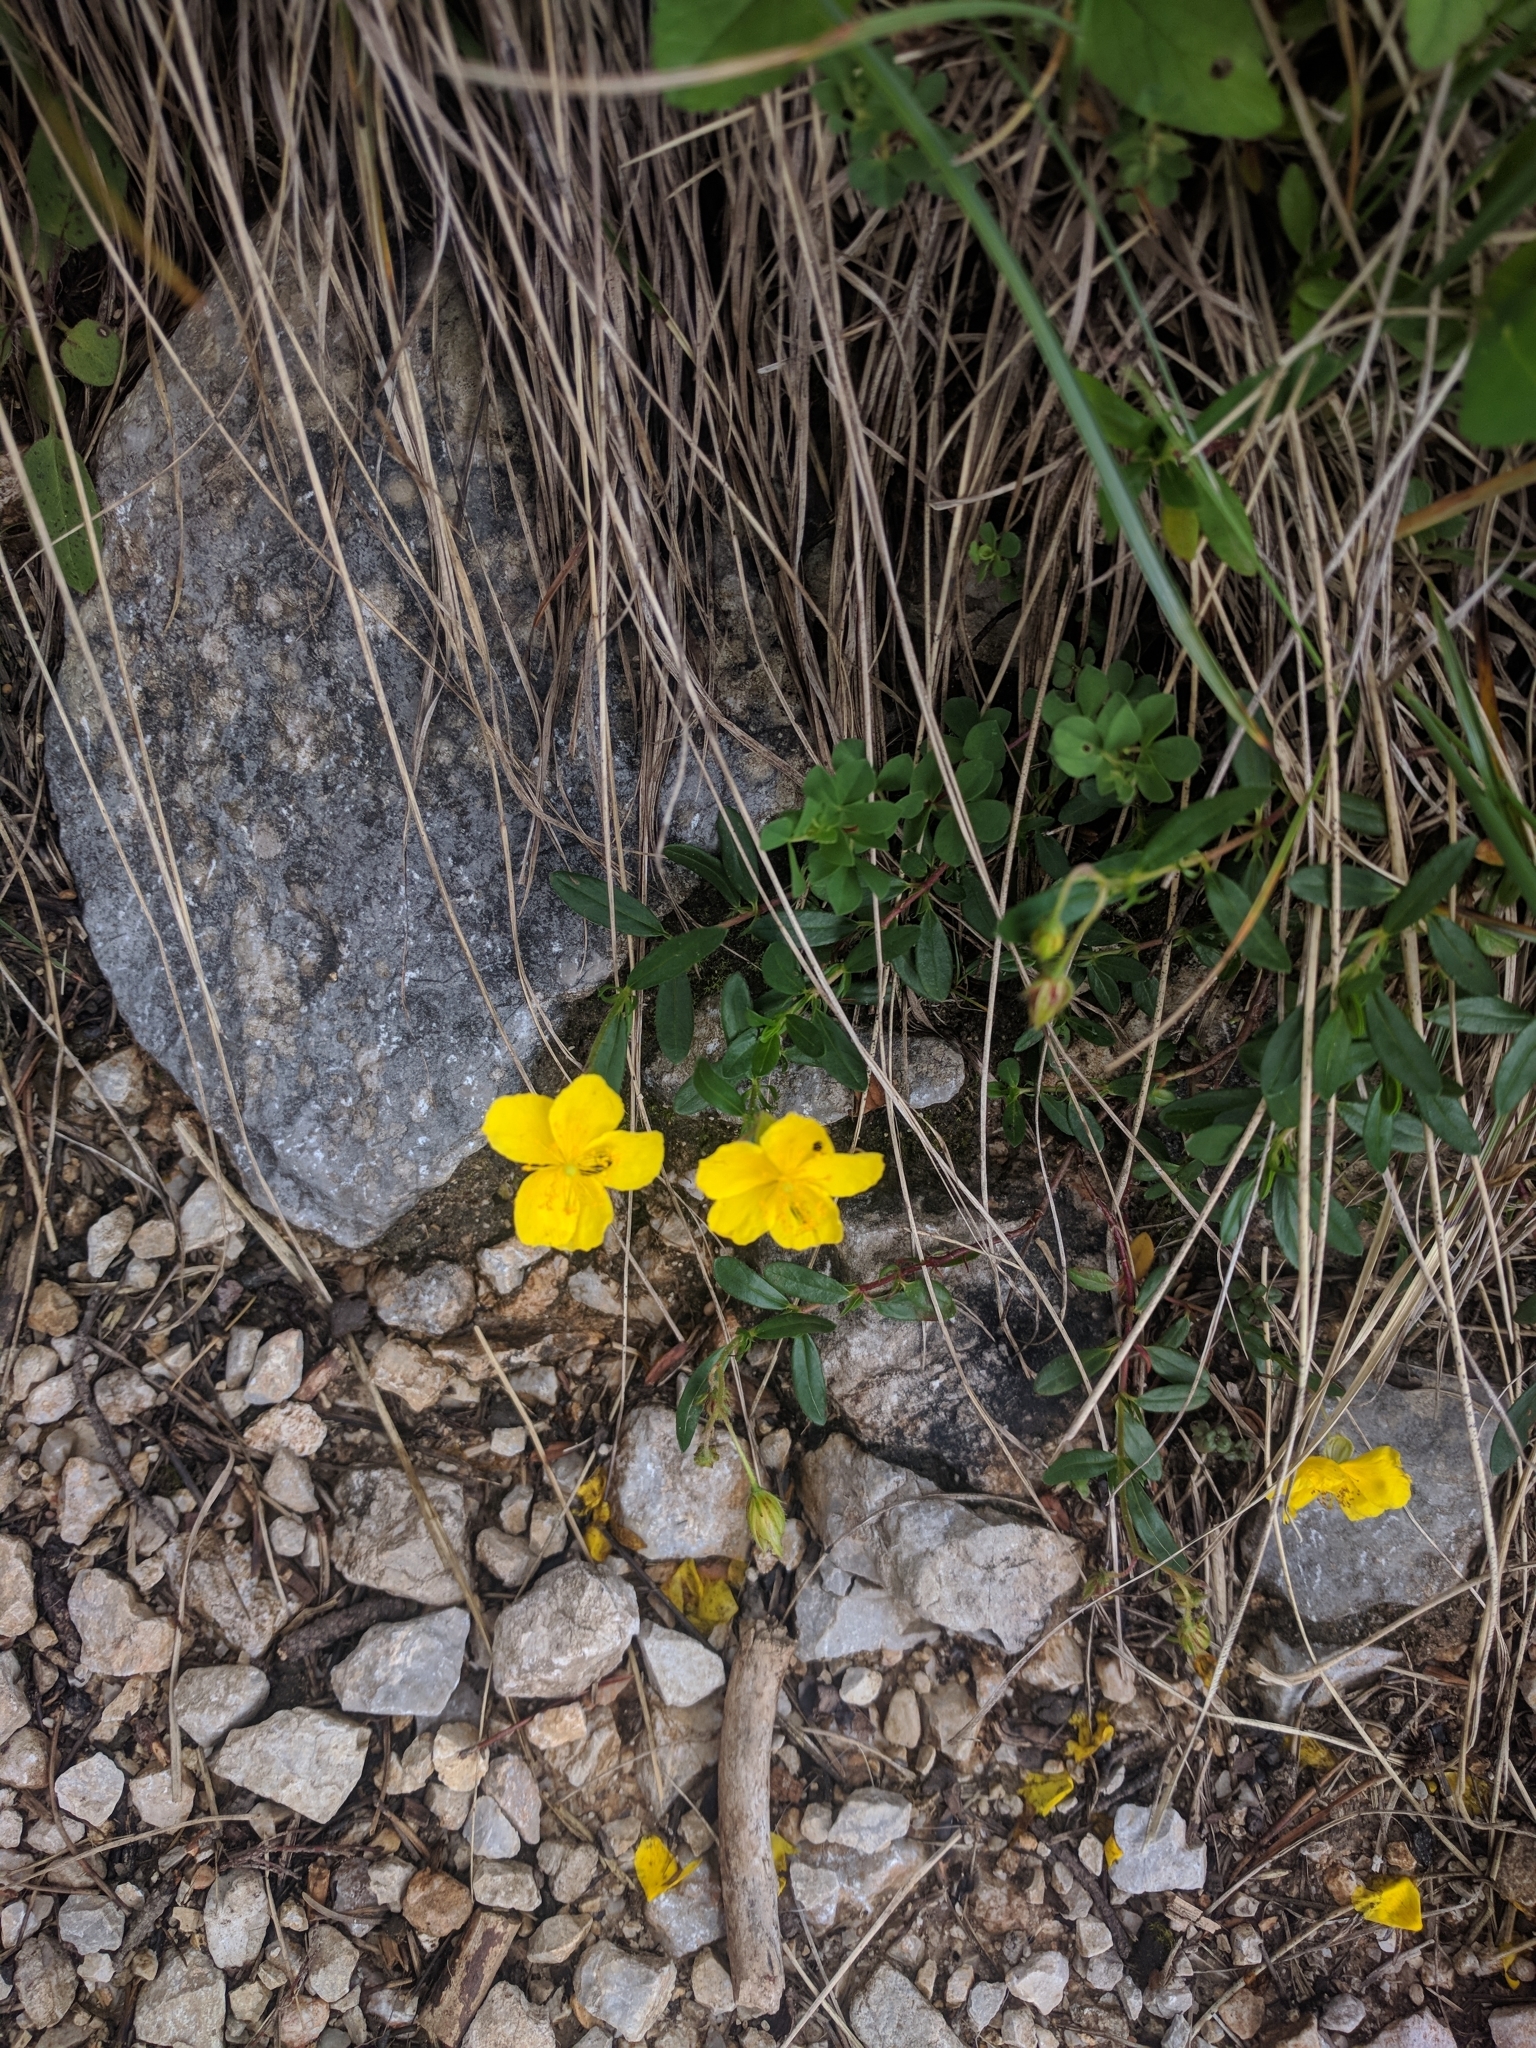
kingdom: Plantae
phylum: Tracheophyta
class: Magnoliopsida
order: Malvales
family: Cistaceae
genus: Helianthemum
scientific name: Helianthemum nummularium
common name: Common rock-rose
